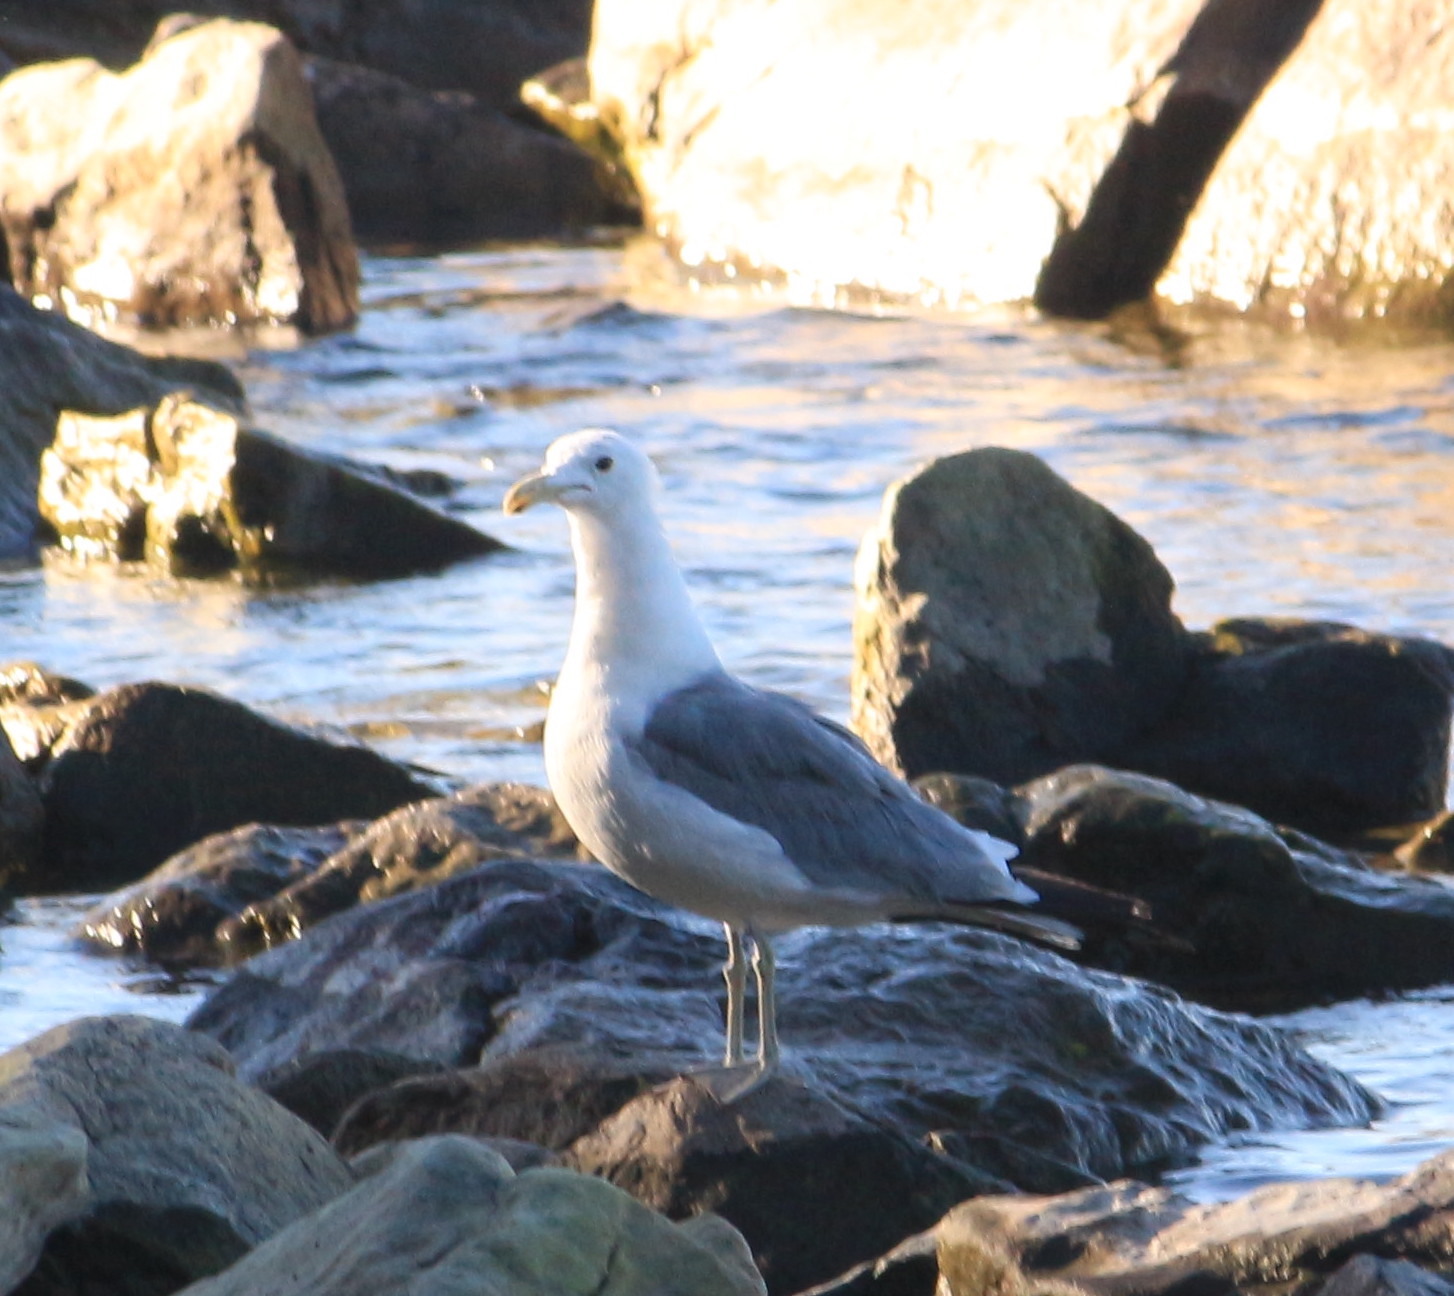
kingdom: Animalia
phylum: Chordata
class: Aves
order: Charadriiformes
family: Laridae
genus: Larus
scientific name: Larus californicus
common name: California gull
